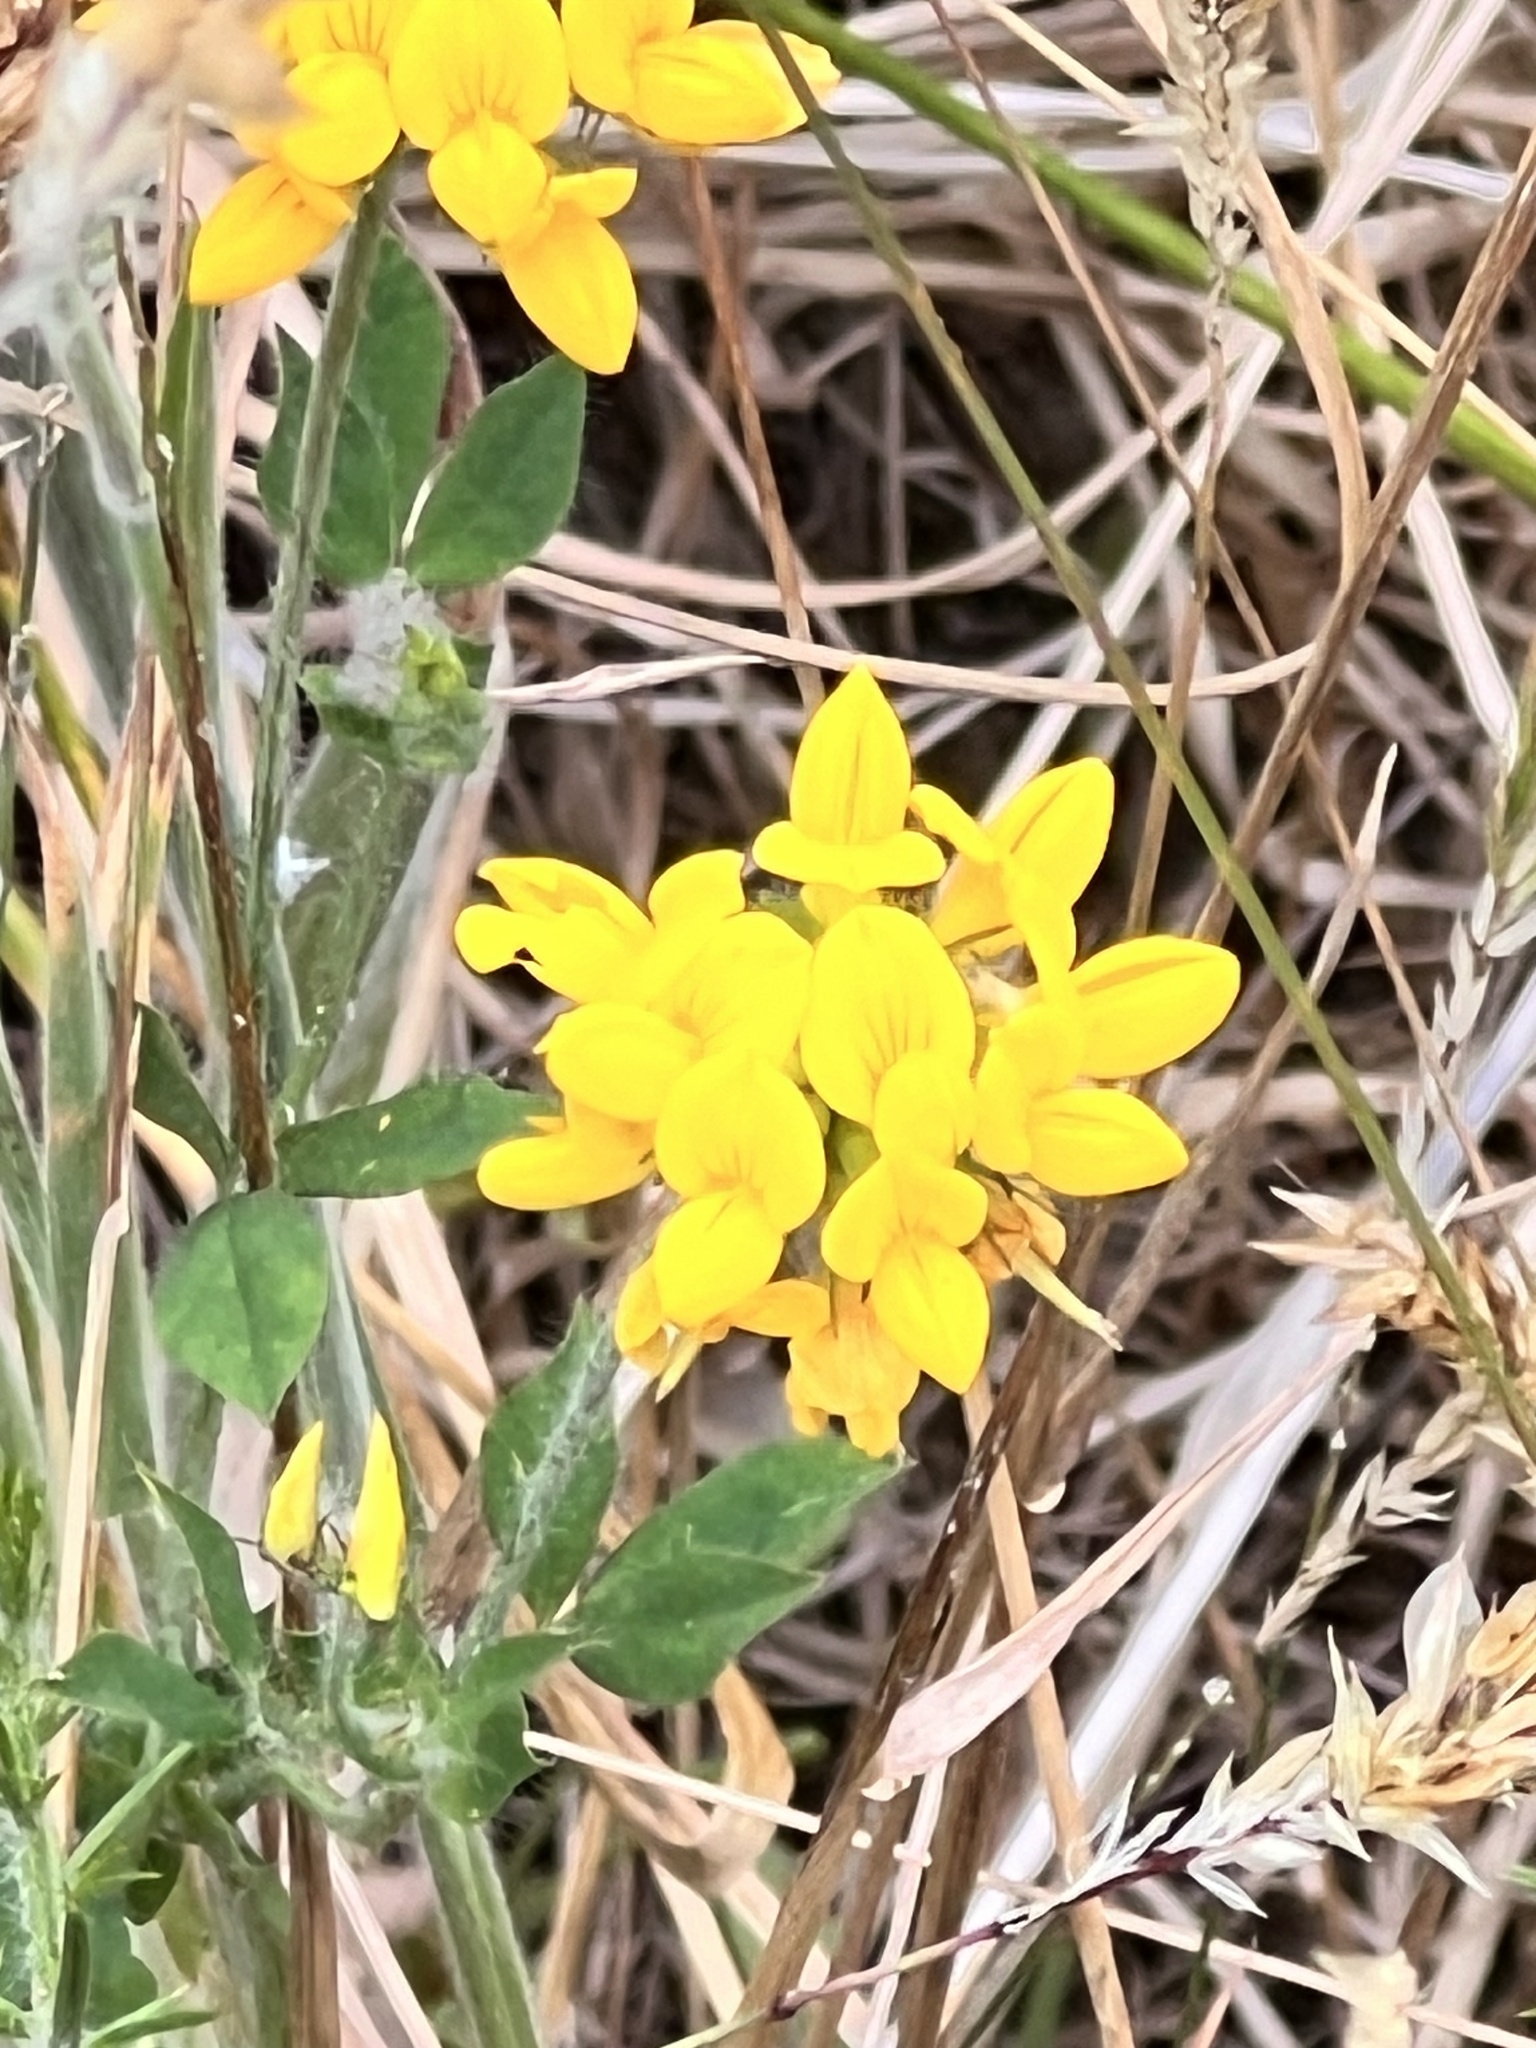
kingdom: Plantae
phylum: Tracheophyta
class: Magnoliopsida
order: Fabales
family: Fabaceae
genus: Lotus
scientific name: Lotus pedunculatus
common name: Greater birdsfoot-trefoil
